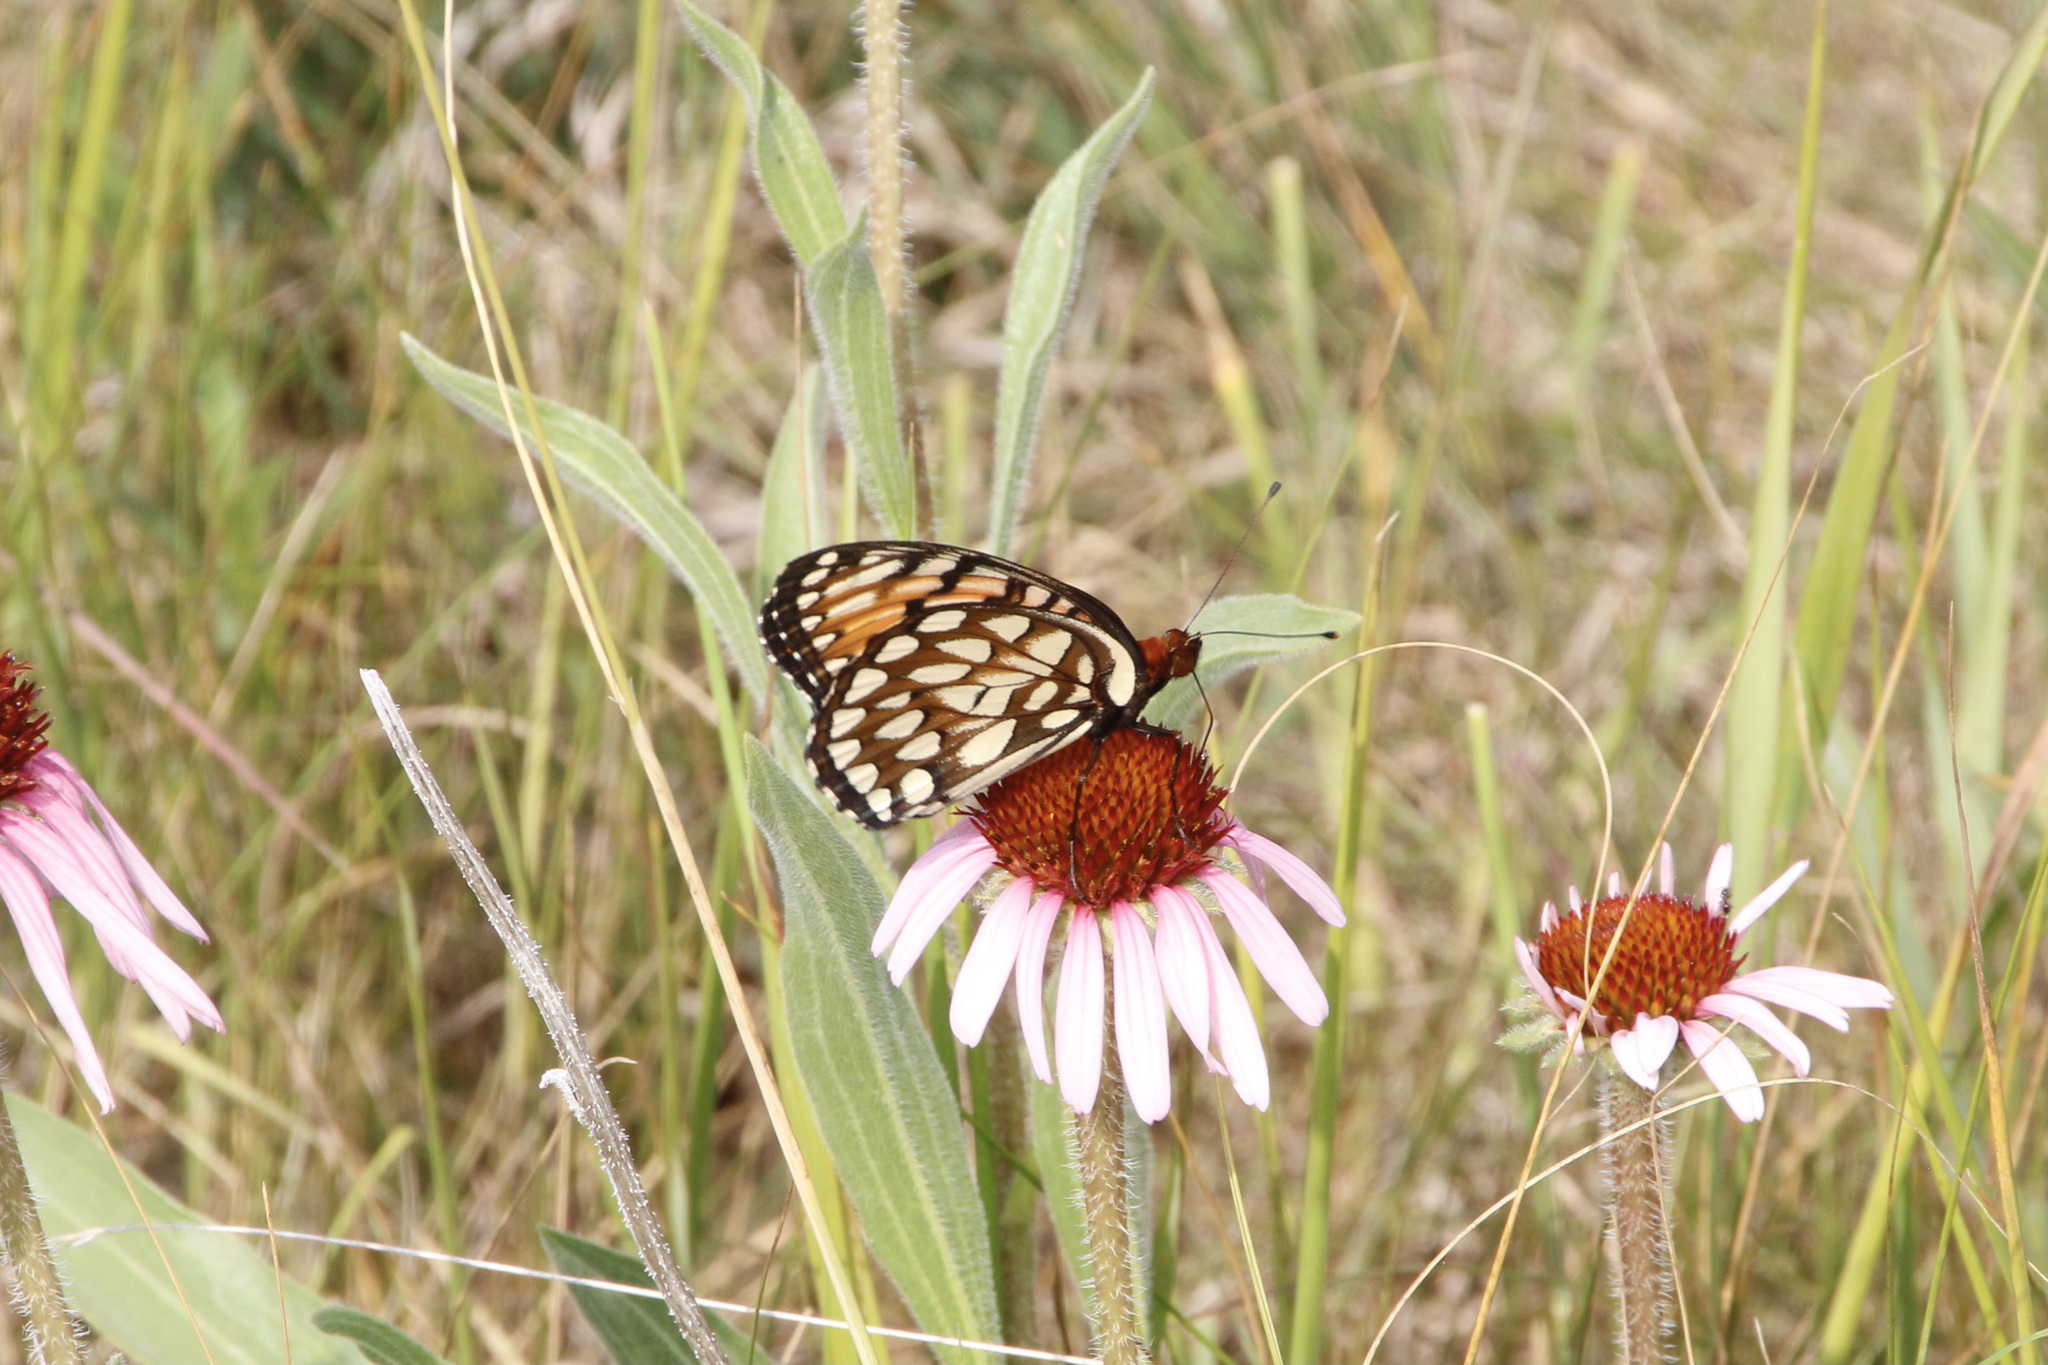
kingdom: Animalia
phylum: Arthropoda
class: Insecta
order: Lepidoptera
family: Nymphalidae
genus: Speyeria
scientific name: Speyeria idalia
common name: Regal fritillary
